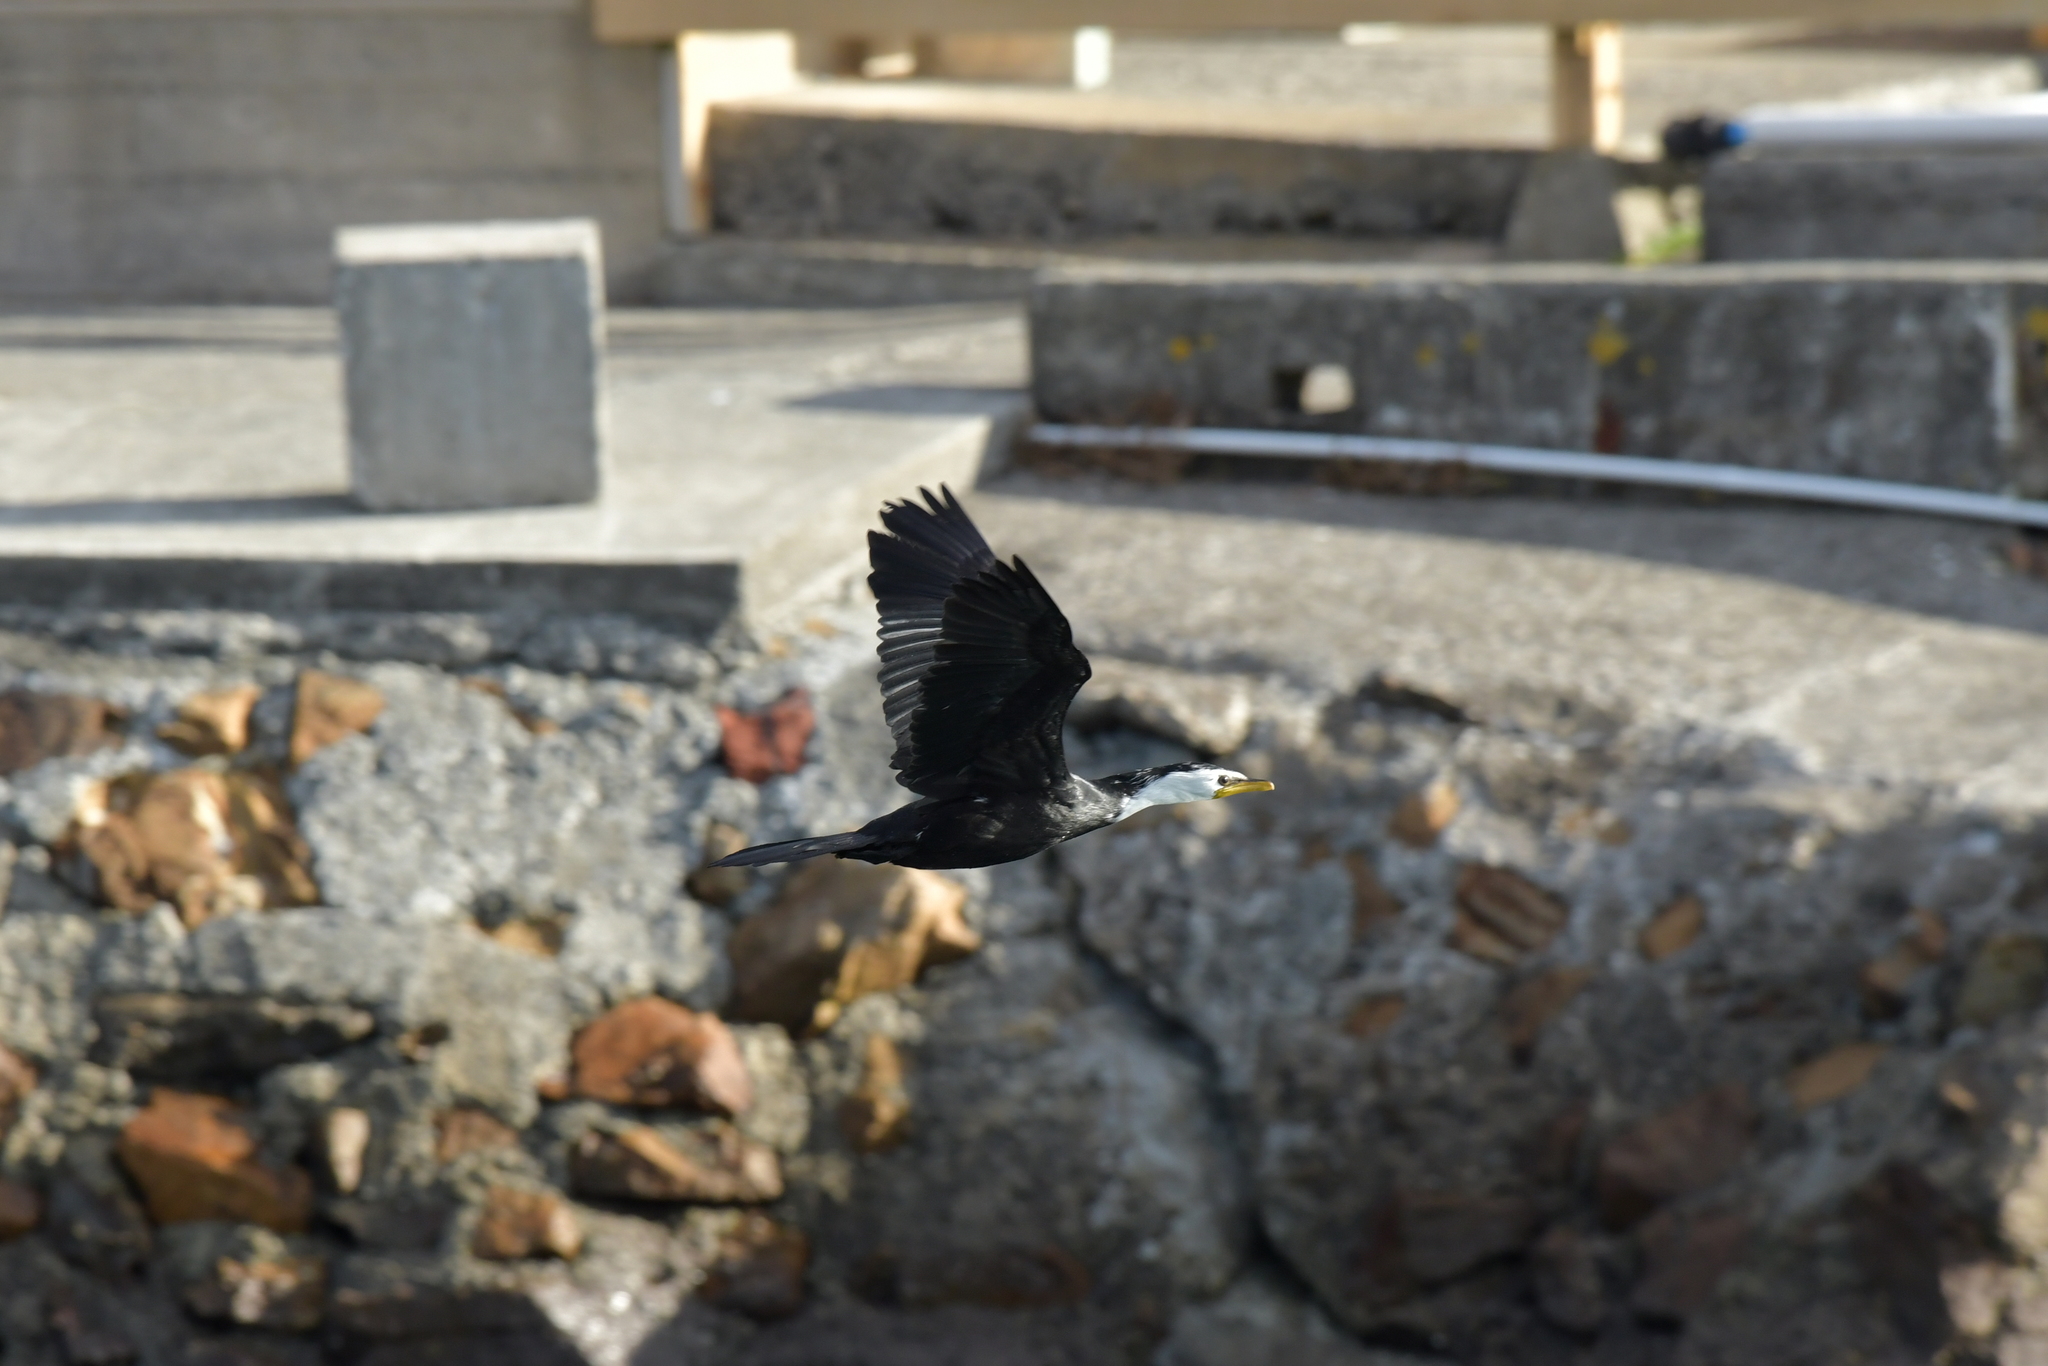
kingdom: Animalia
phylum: Chordata
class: Aves
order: Suliformes
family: Phalacrocoracidae
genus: Microcarbo
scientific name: Microcarbo melanoleucos
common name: Little pied cormorant
